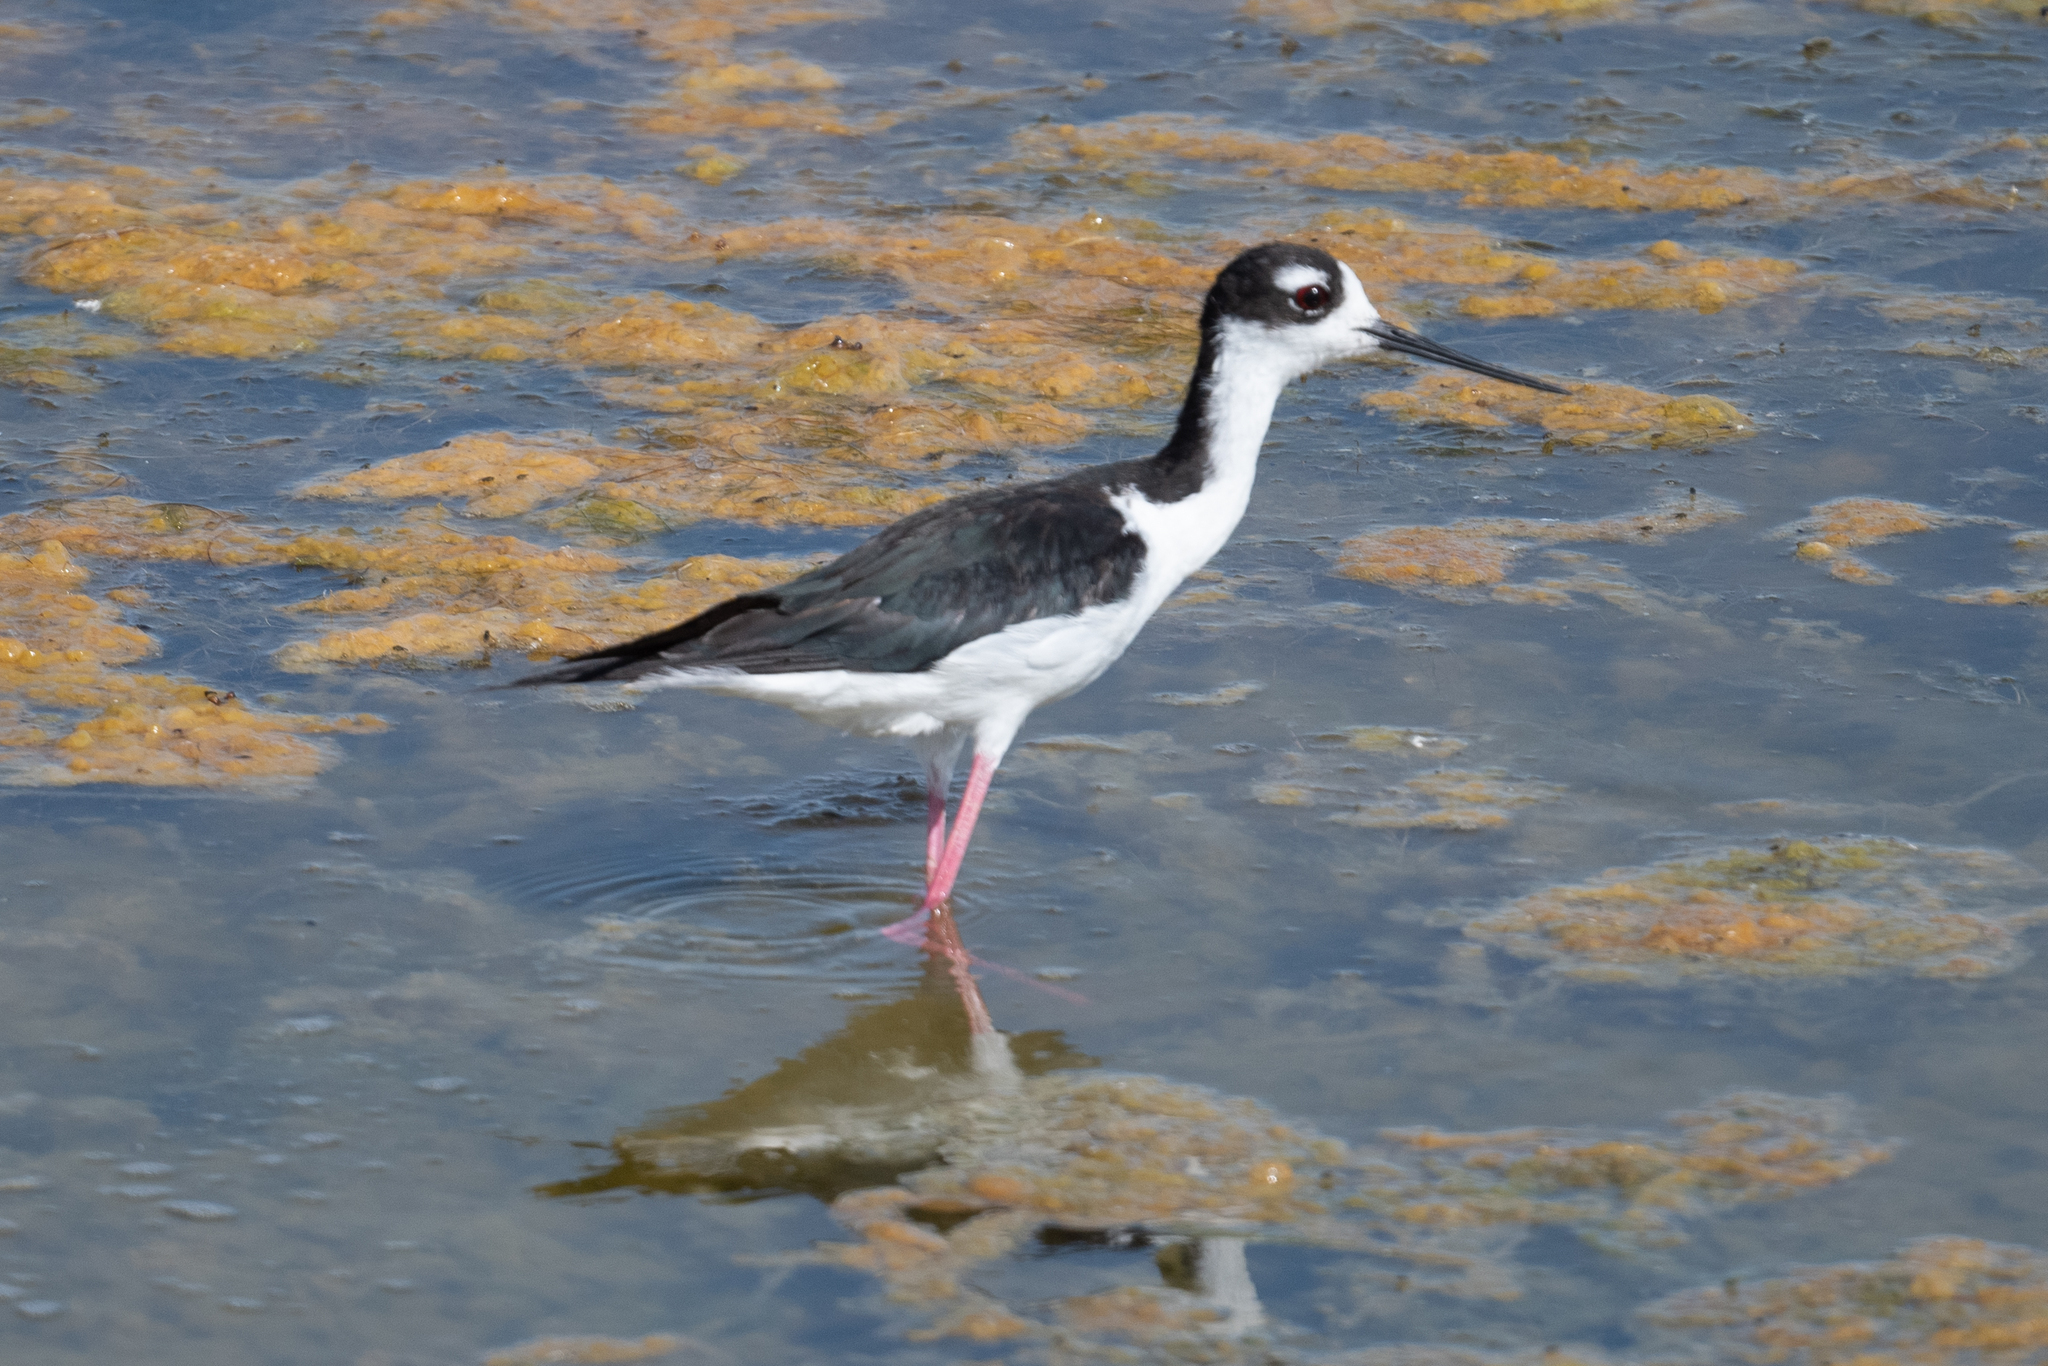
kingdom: Animalia
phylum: Chordata
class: Aves
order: Charadriiformes
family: Recurvirostridae
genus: Himantopus
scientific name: Himantopus mexicanus
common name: Black-necked stilt
